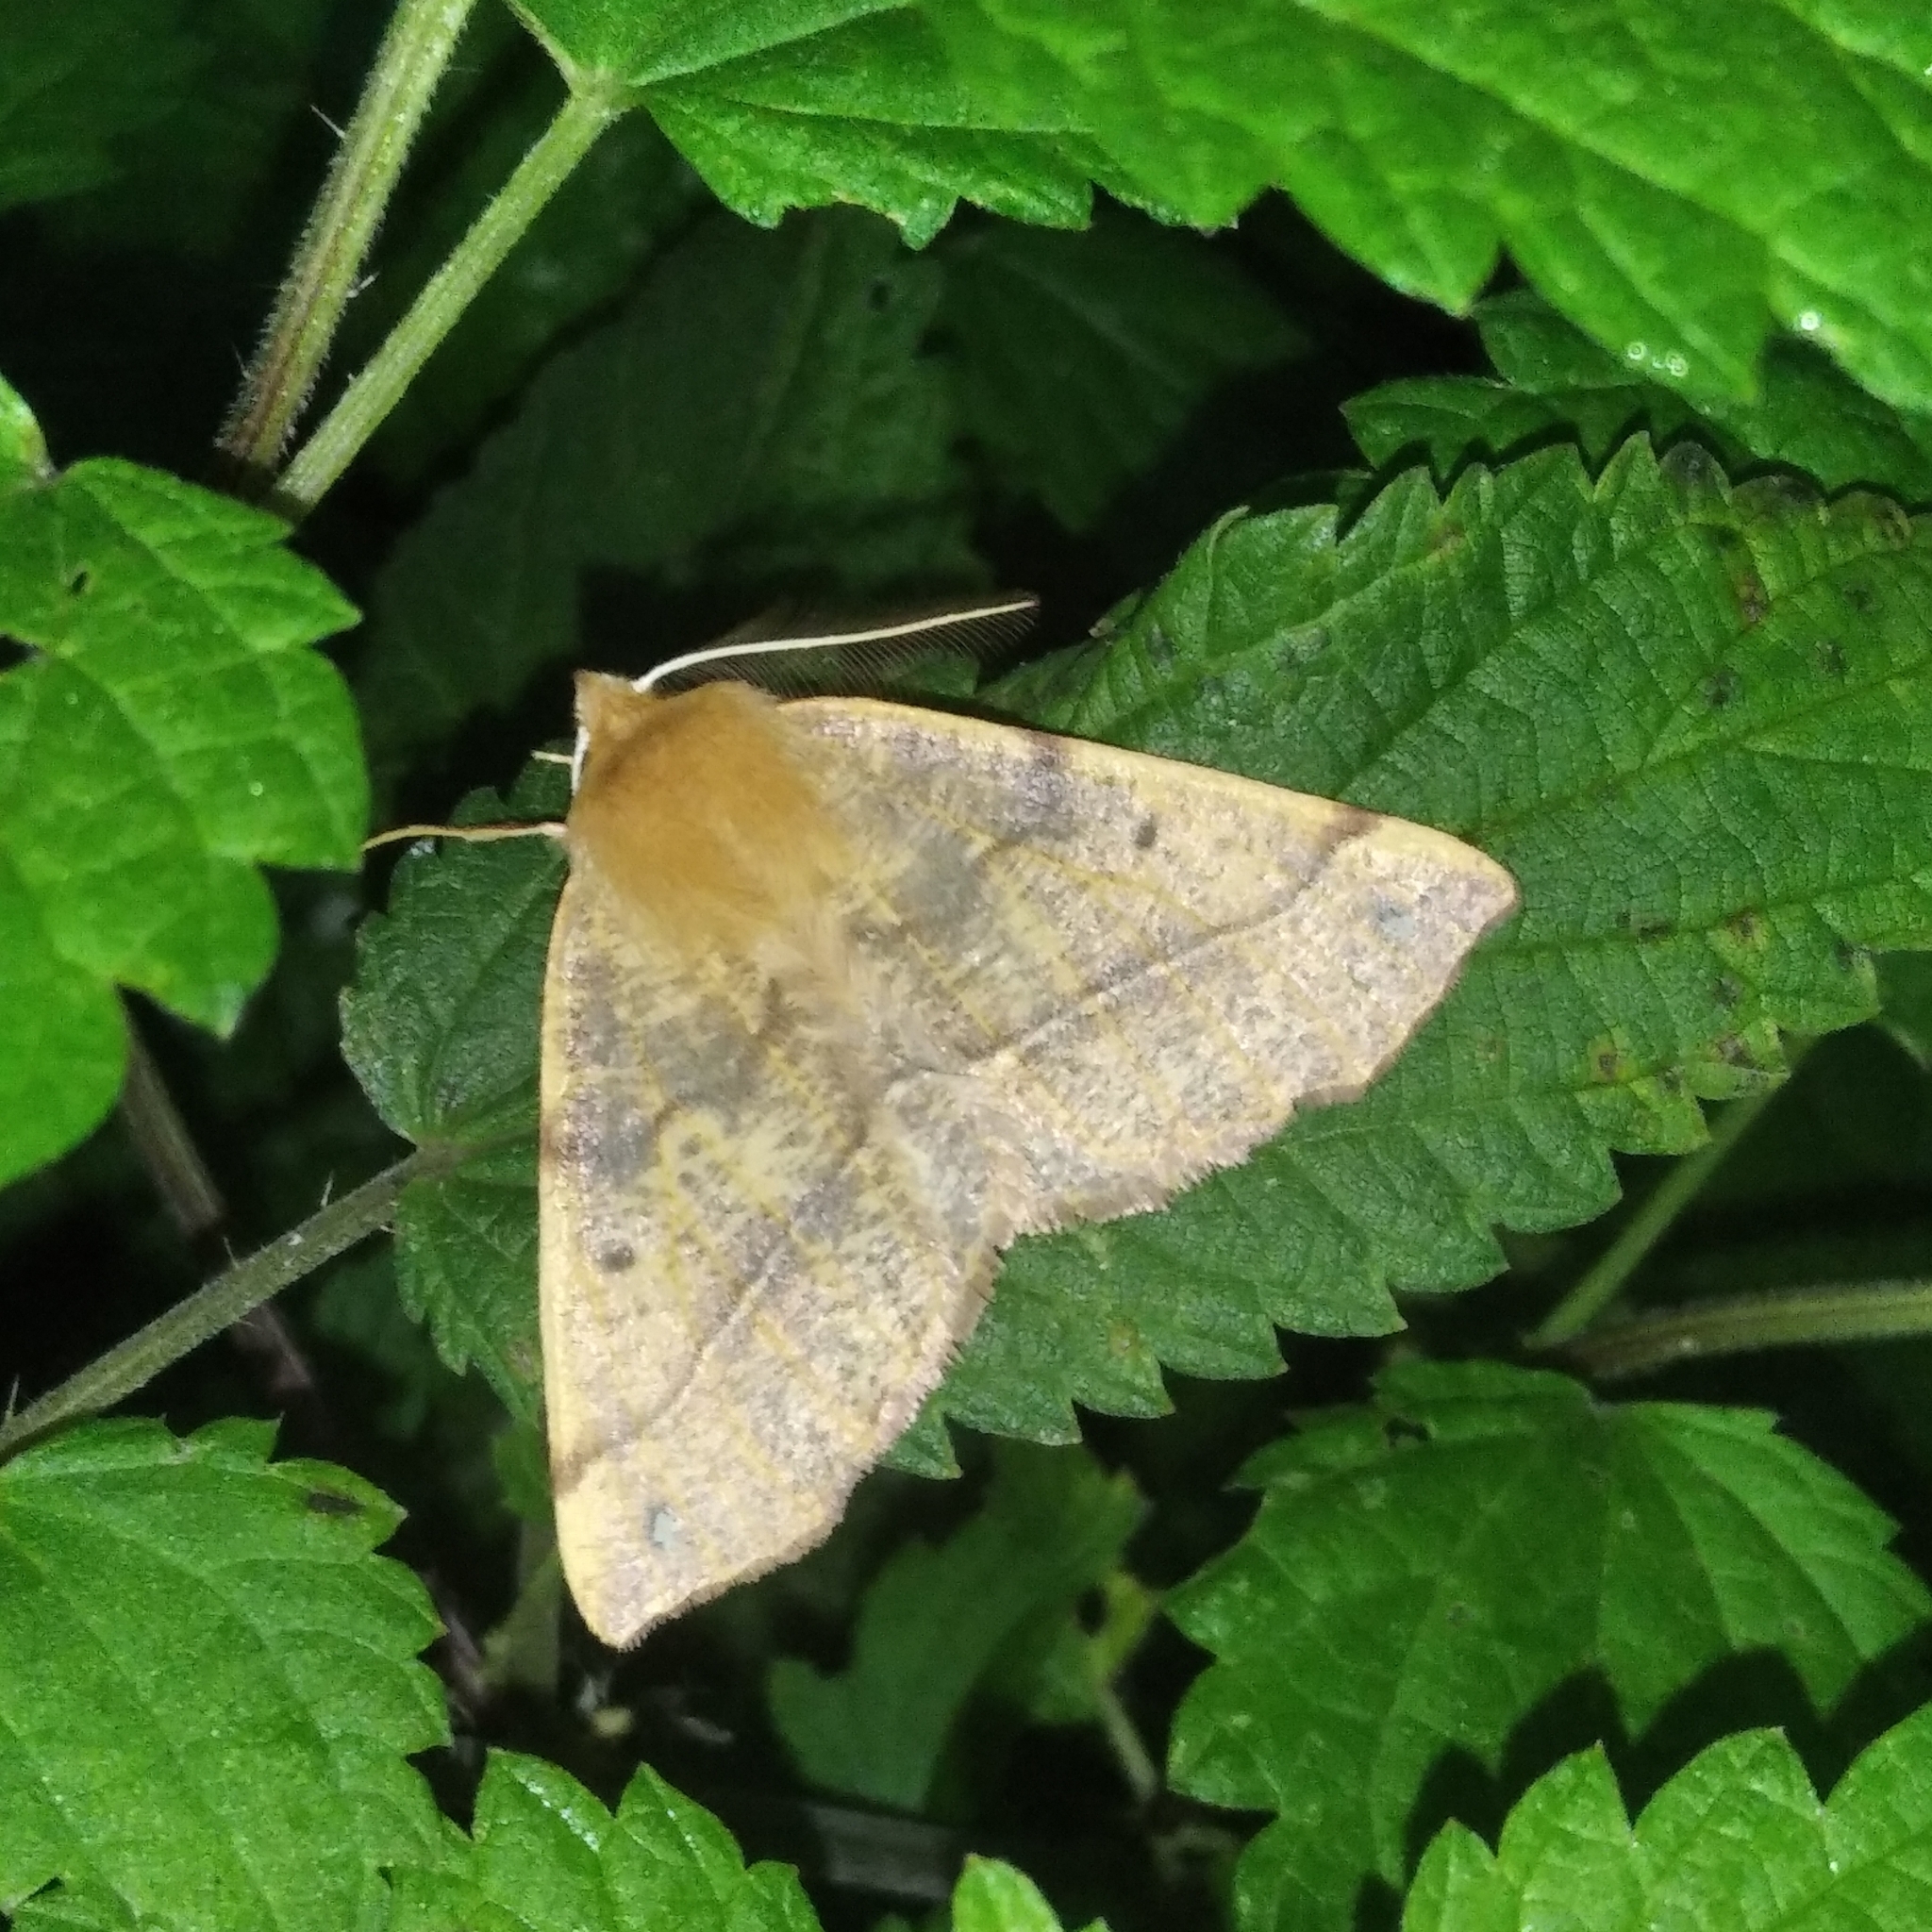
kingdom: Animalia
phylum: Arthropoda
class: Insecta
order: Lepidoptera
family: Geometridae
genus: Colotois
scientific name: Colotois pennaria
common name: Feathered thorn
